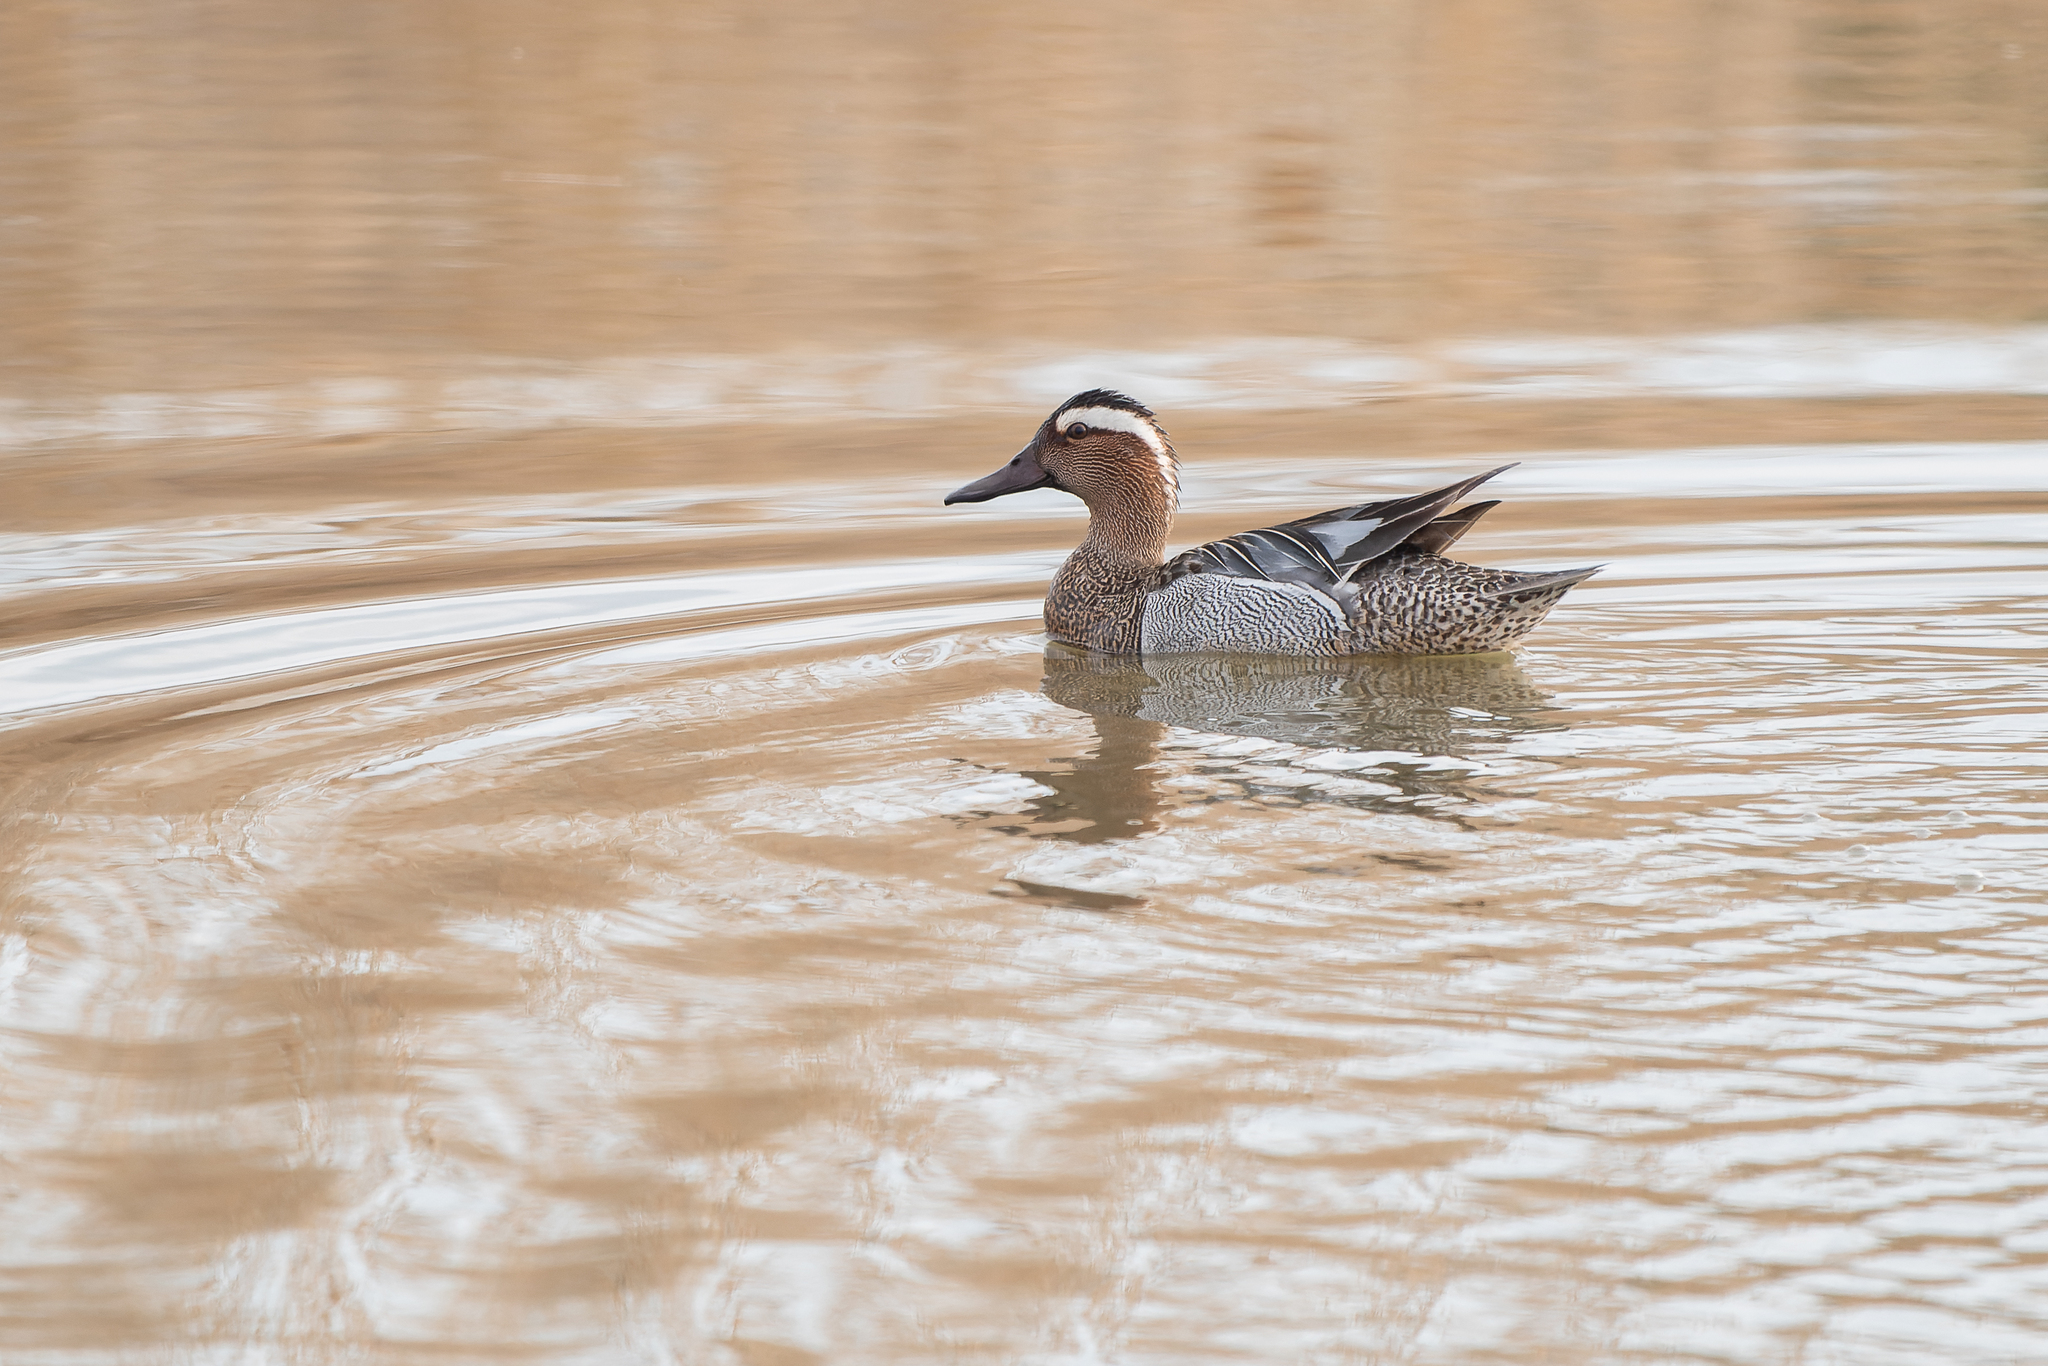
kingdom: Animalia
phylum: Chordata
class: Aves
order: Anseriformes
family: Anatidae
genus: Spatula
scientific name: Spatula querquedula
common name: Garganey
